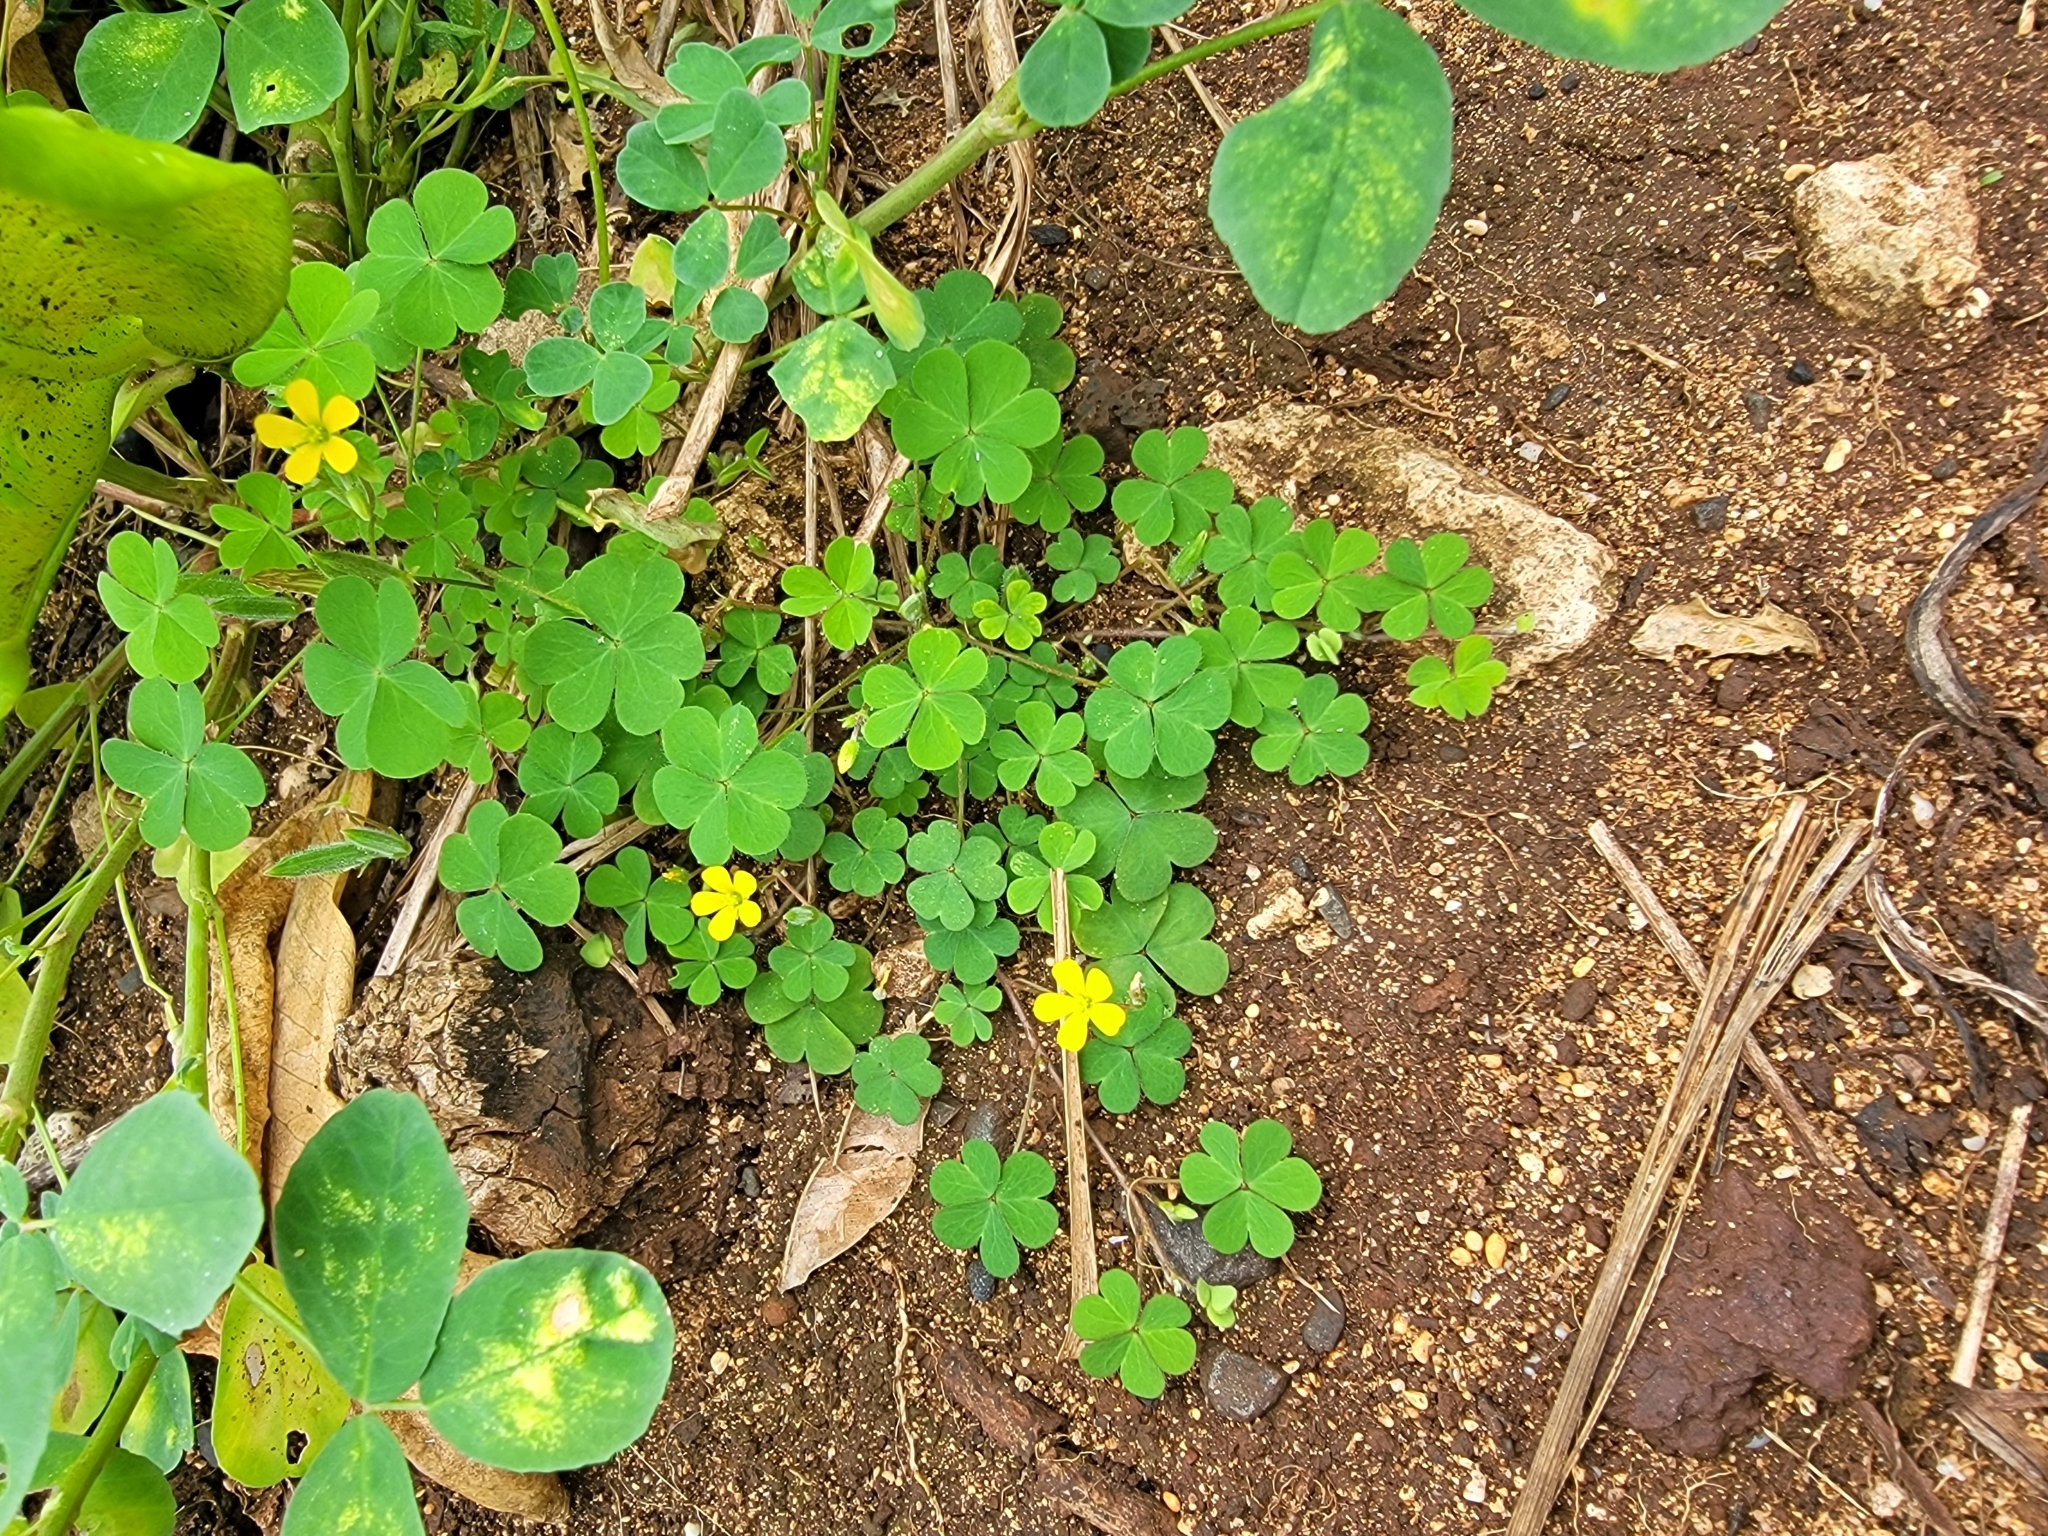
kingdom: Plantae
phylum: Tracheophyta
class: Magnoliopsida
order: Oxalidales
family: Oxalidaceae
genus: Oxalis
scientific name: Oxalis corniculata
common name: Procumbent yellow-sorrel
